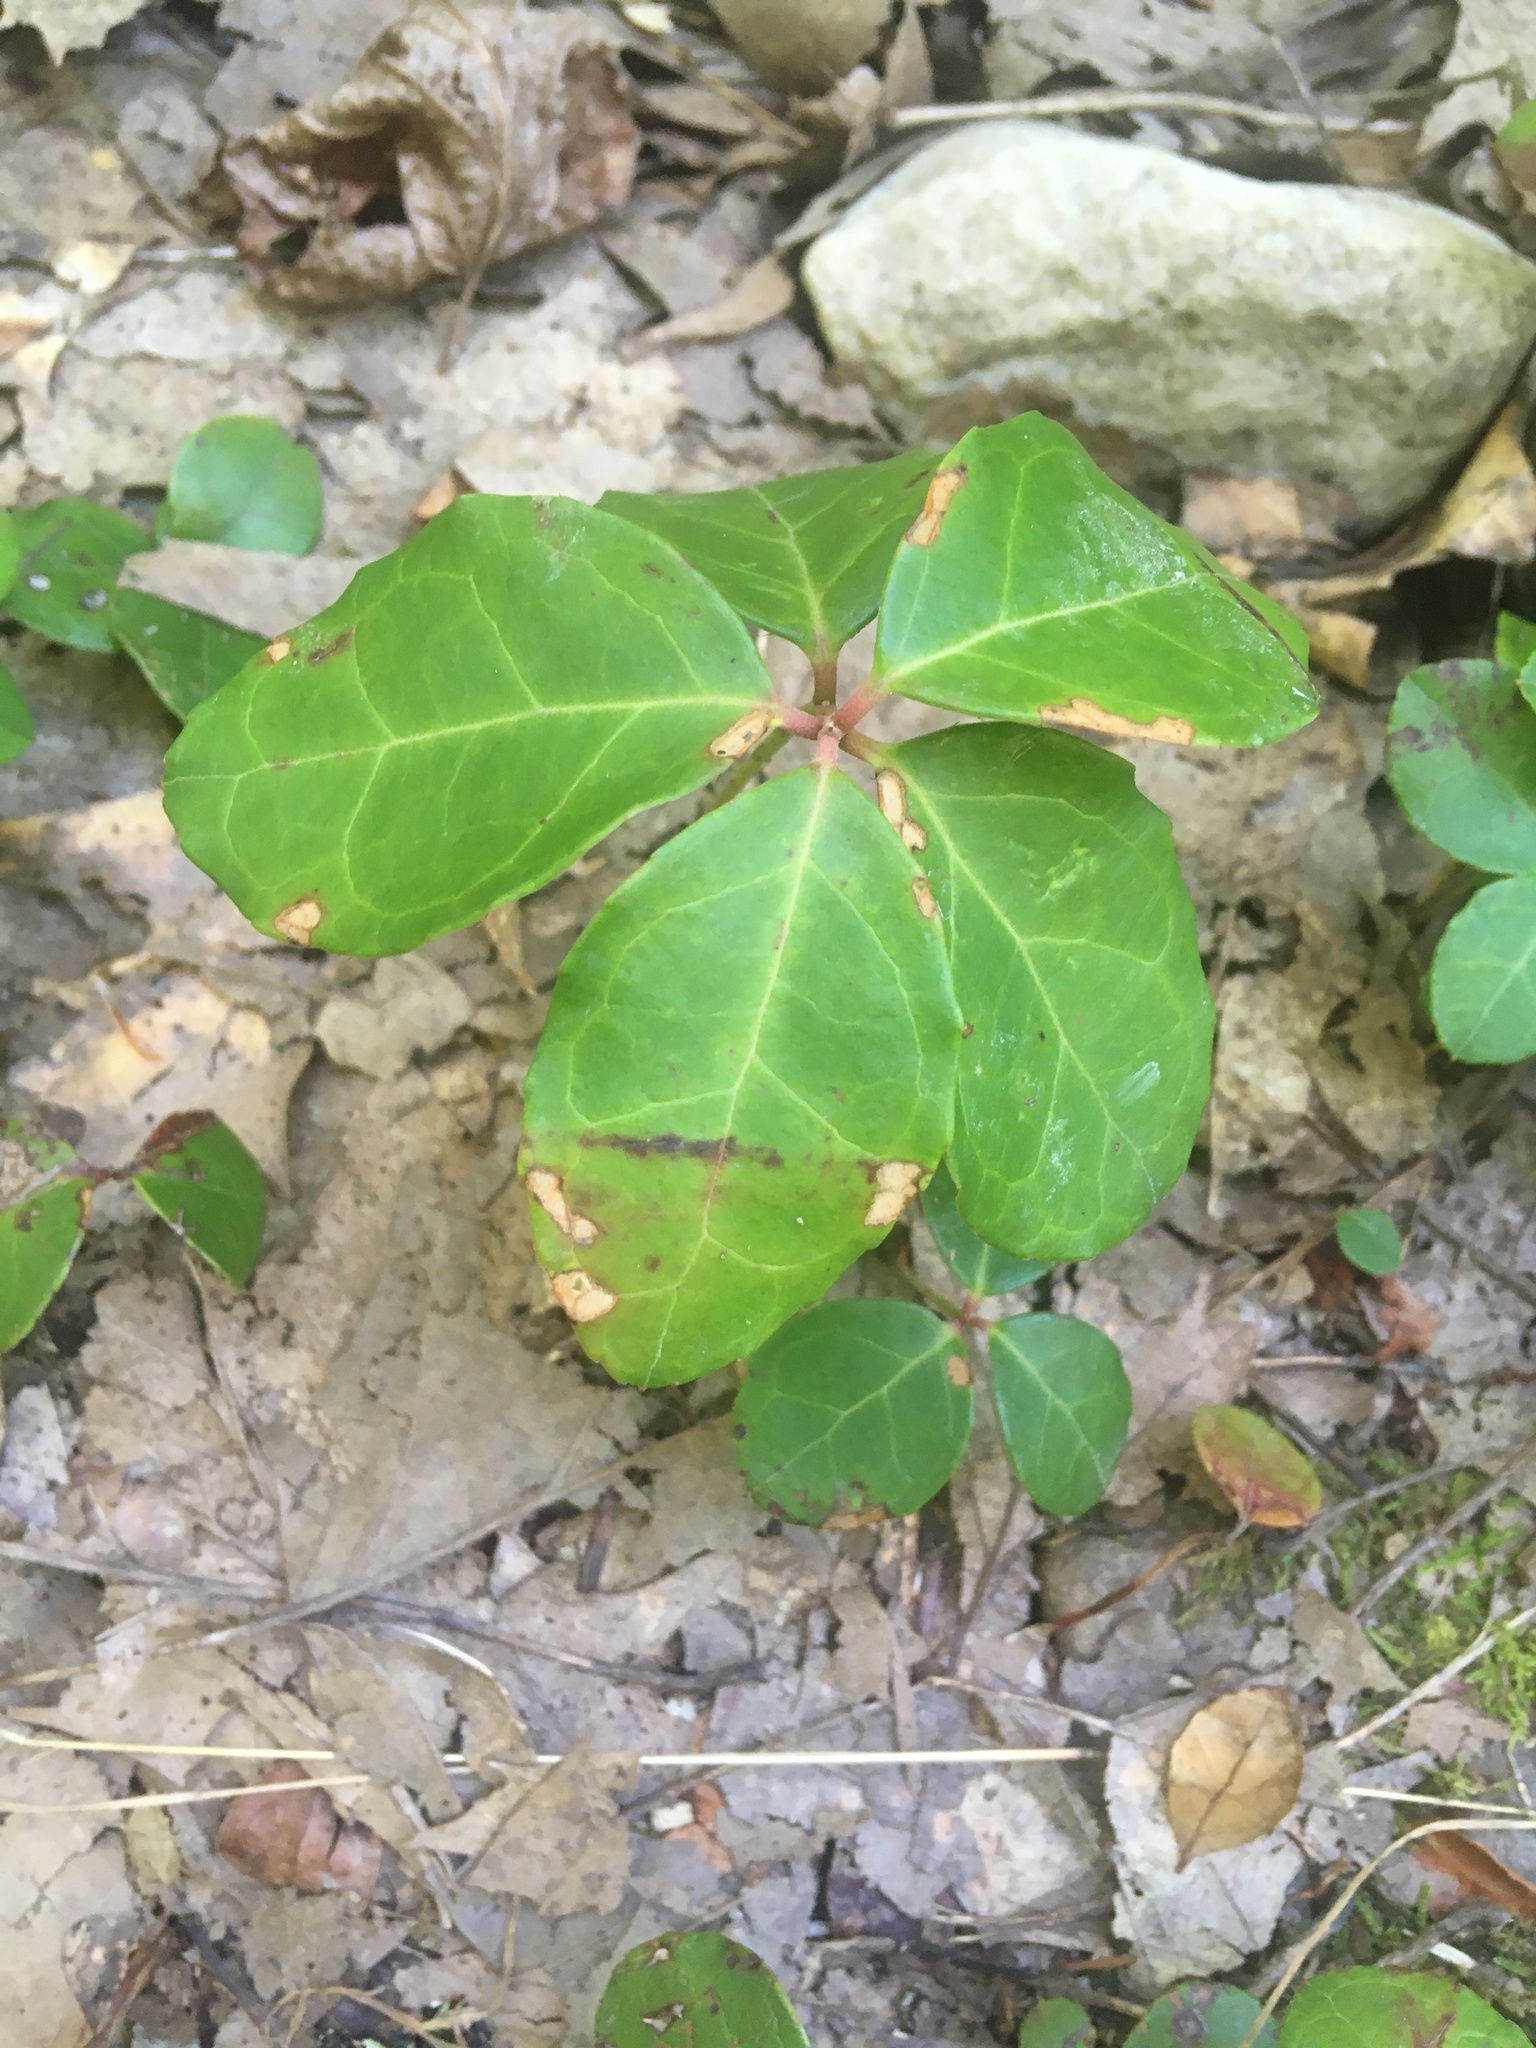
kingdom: Plantae
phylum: Tracheophyta
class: Magnoliopsida
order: Ericales
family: Ericaceae
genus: Gaultheria
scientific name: Gaultheria procumbens
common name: Checkerberry
